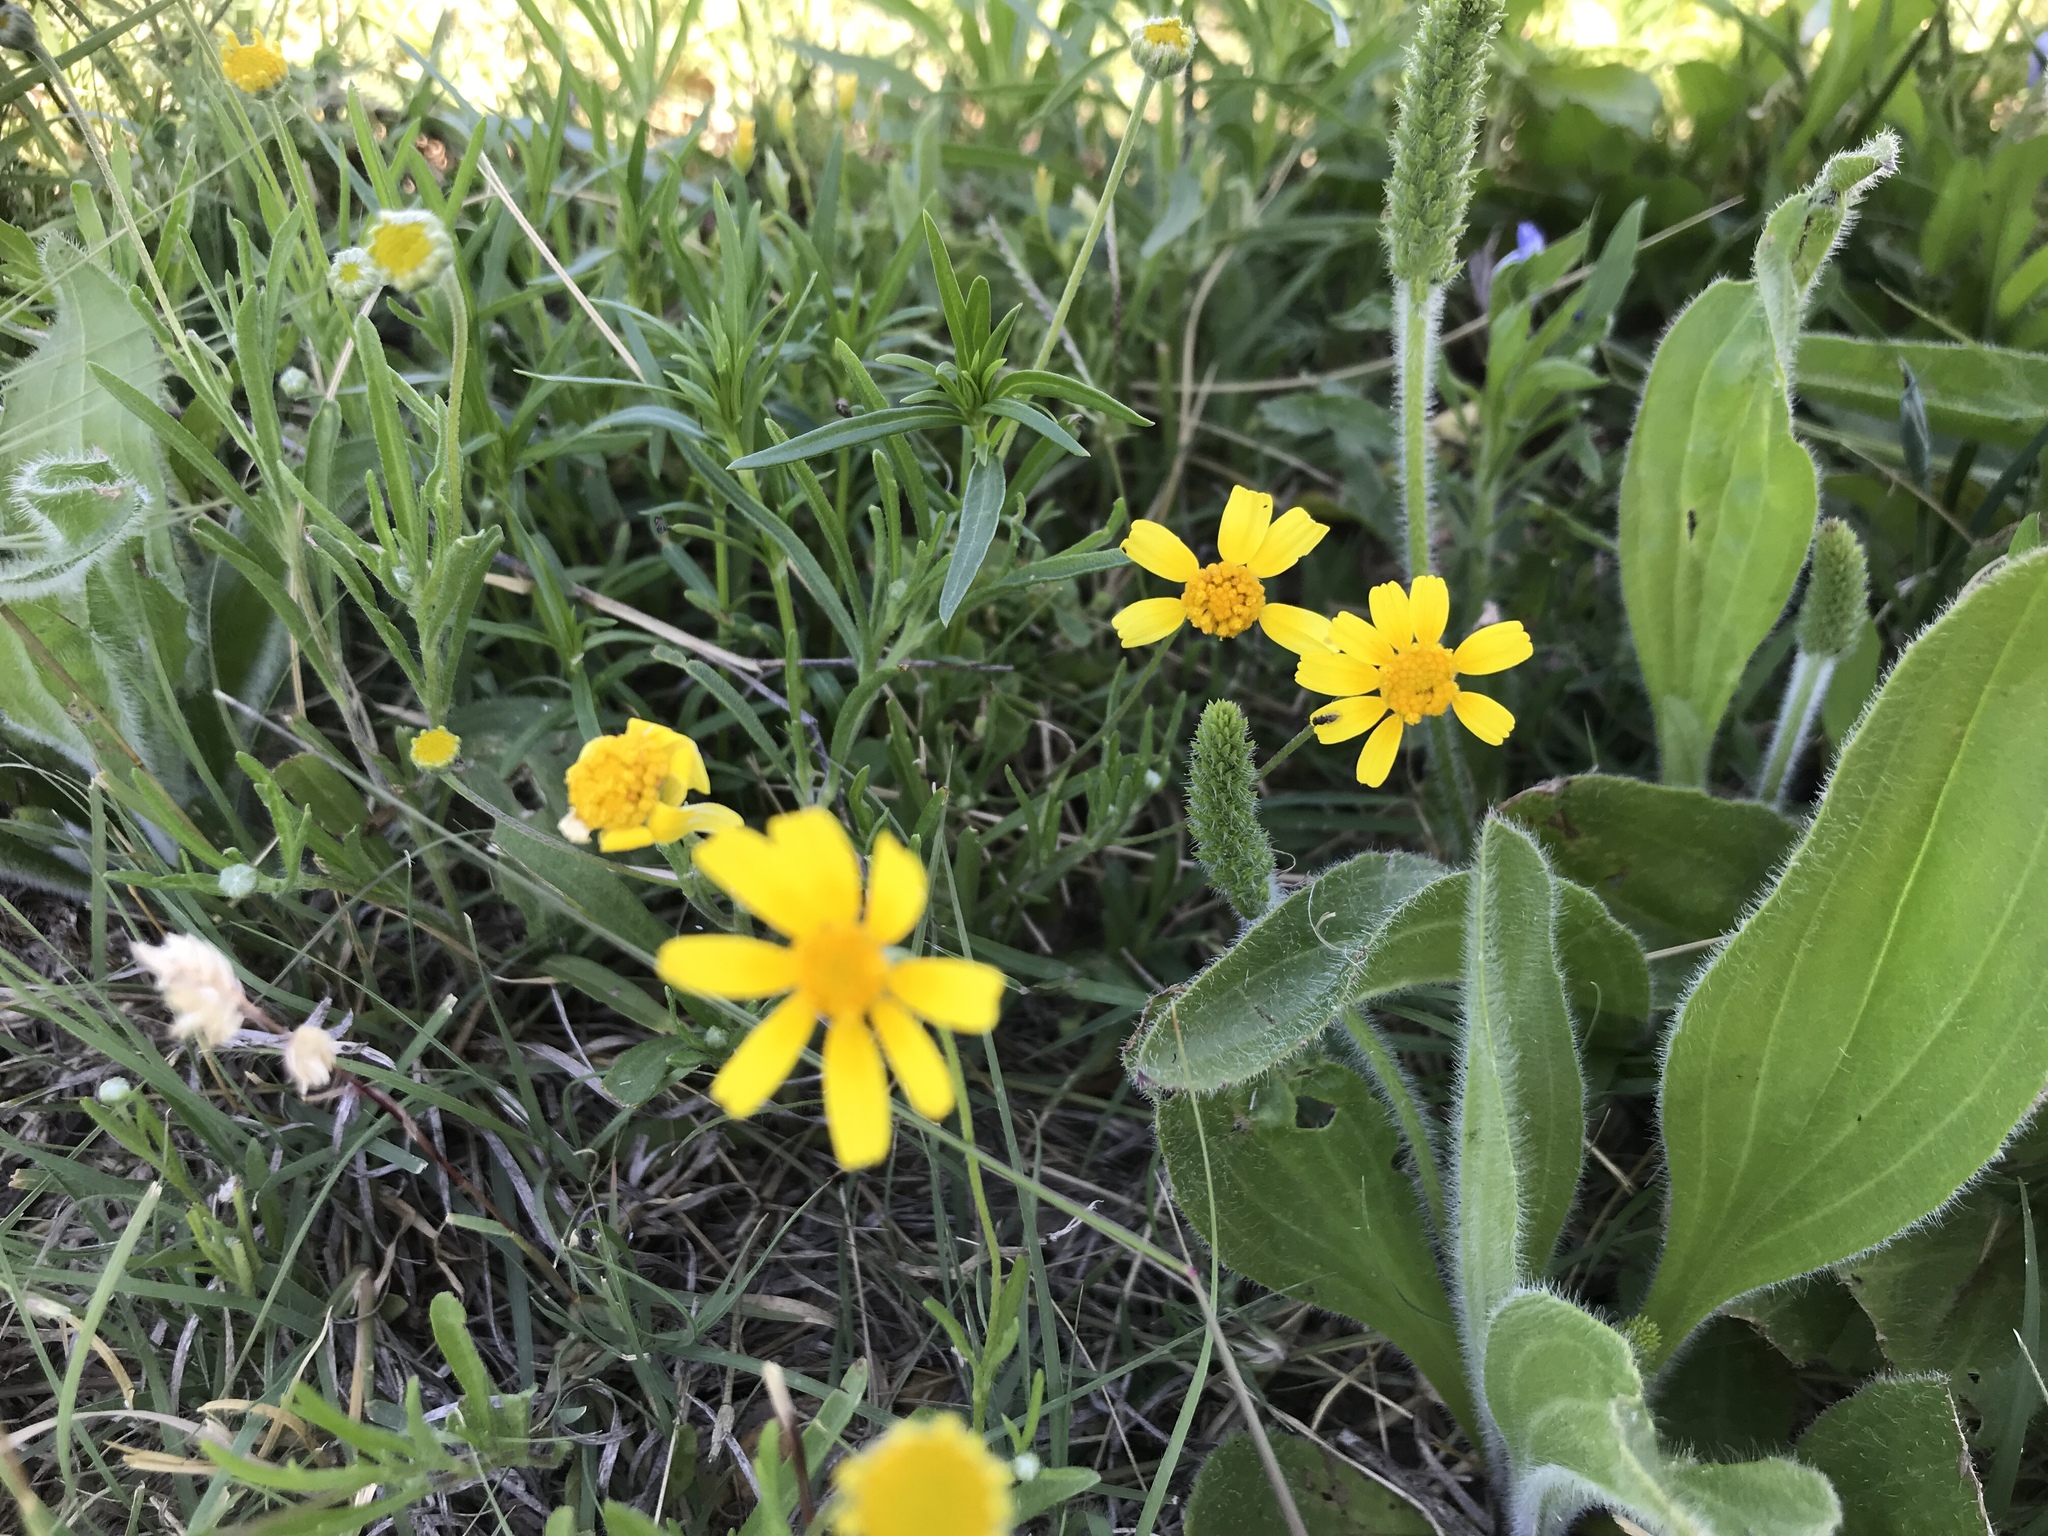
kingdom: Plantae
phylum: Tracheophyta
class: Magnoliopsida
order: Asterales
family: Asteraceae
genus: Tetraneuris
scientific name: Tetraneuris scaposa
